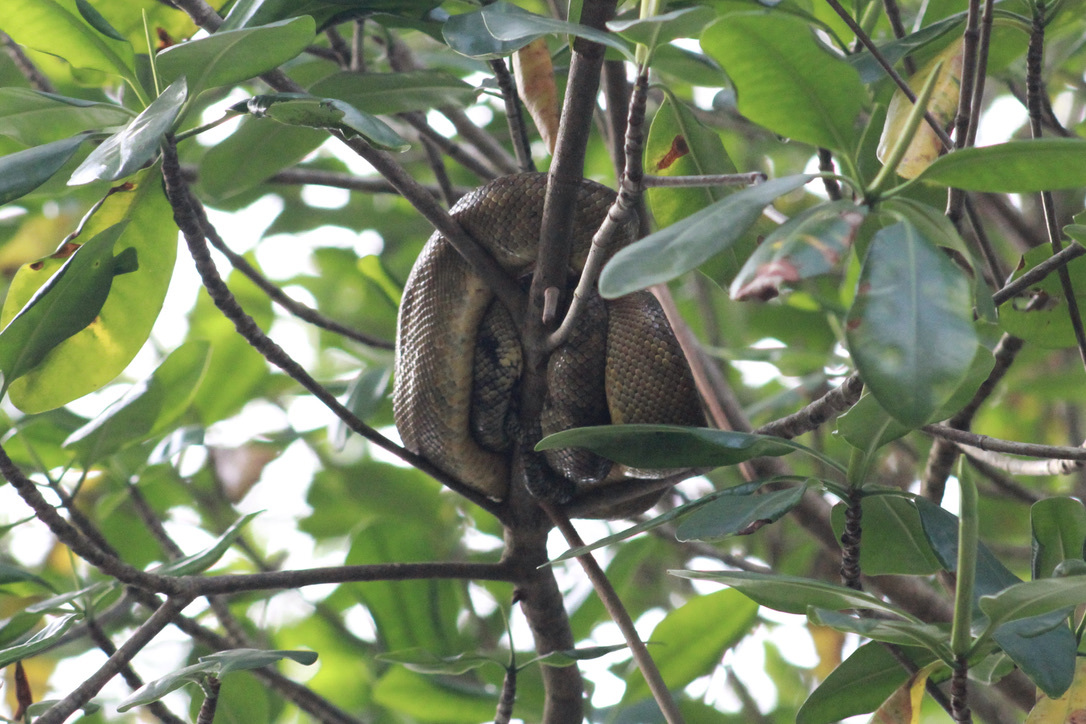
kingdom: Animalia
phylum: Chordata
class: Squamata
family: Boidae
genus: Corallus
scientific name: Corallus ruschenbergerii
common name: Dormilona
